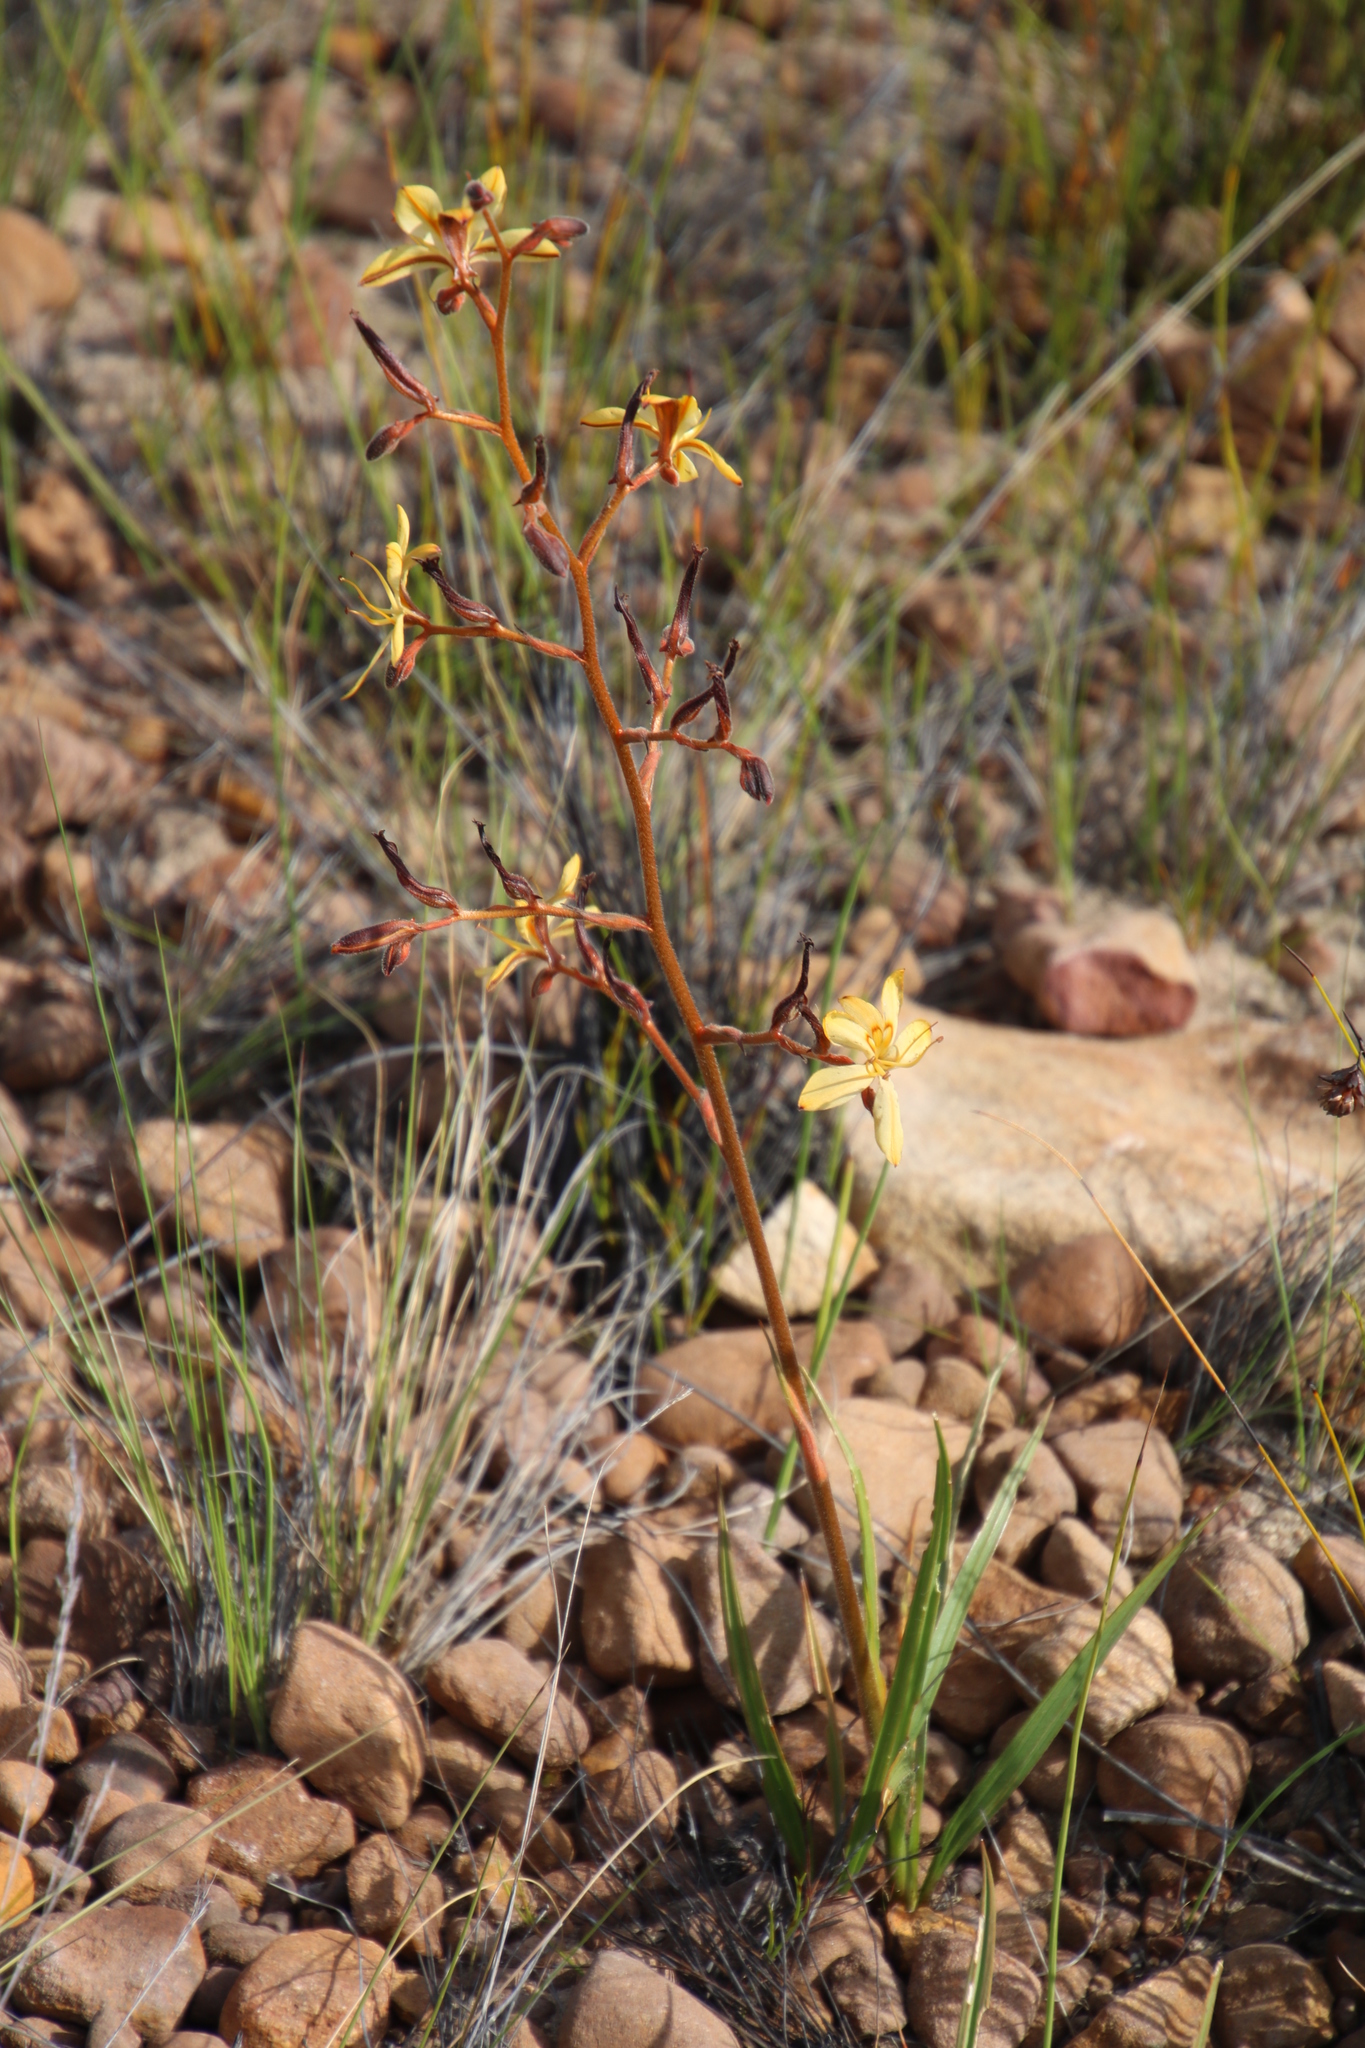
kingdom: Plantae
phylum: Tracheophyta
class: Liliopsida
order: Commelinales
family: Haemodoraceae
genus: Wachendorfia
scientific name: Wachendorfia paniculata
